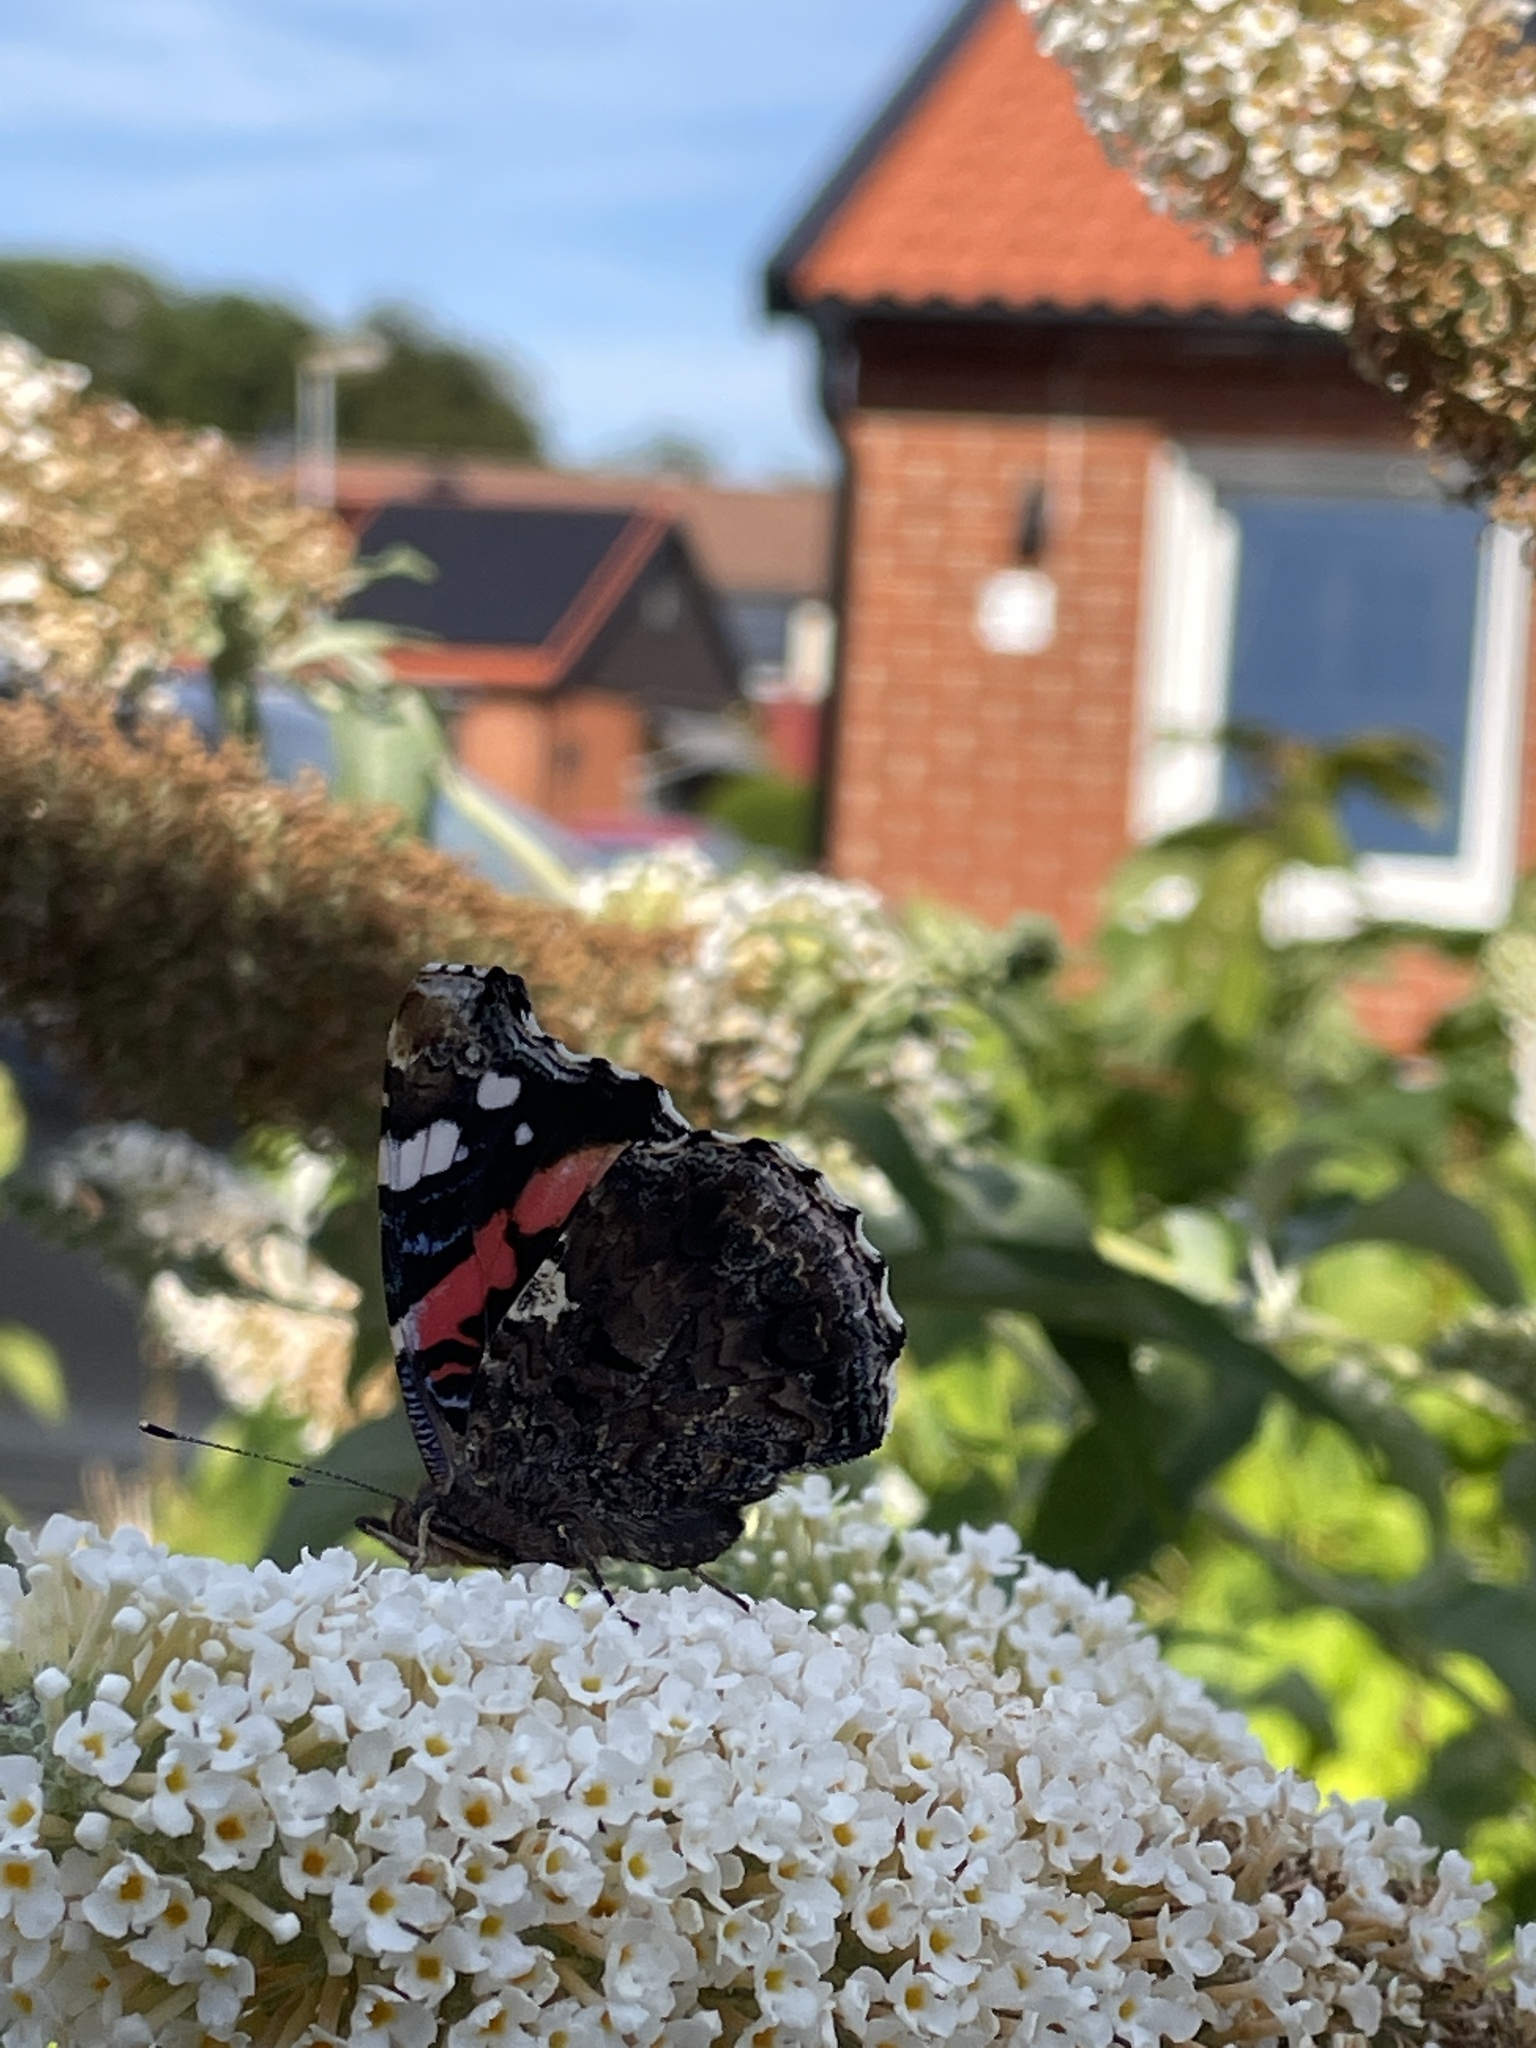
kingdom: Animalia
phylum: Arthropoda
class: Insecta
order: Lepidoptera
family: Nymphalidae
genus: Vanessa
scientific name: Vanessa atalanta
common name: Red admiral
